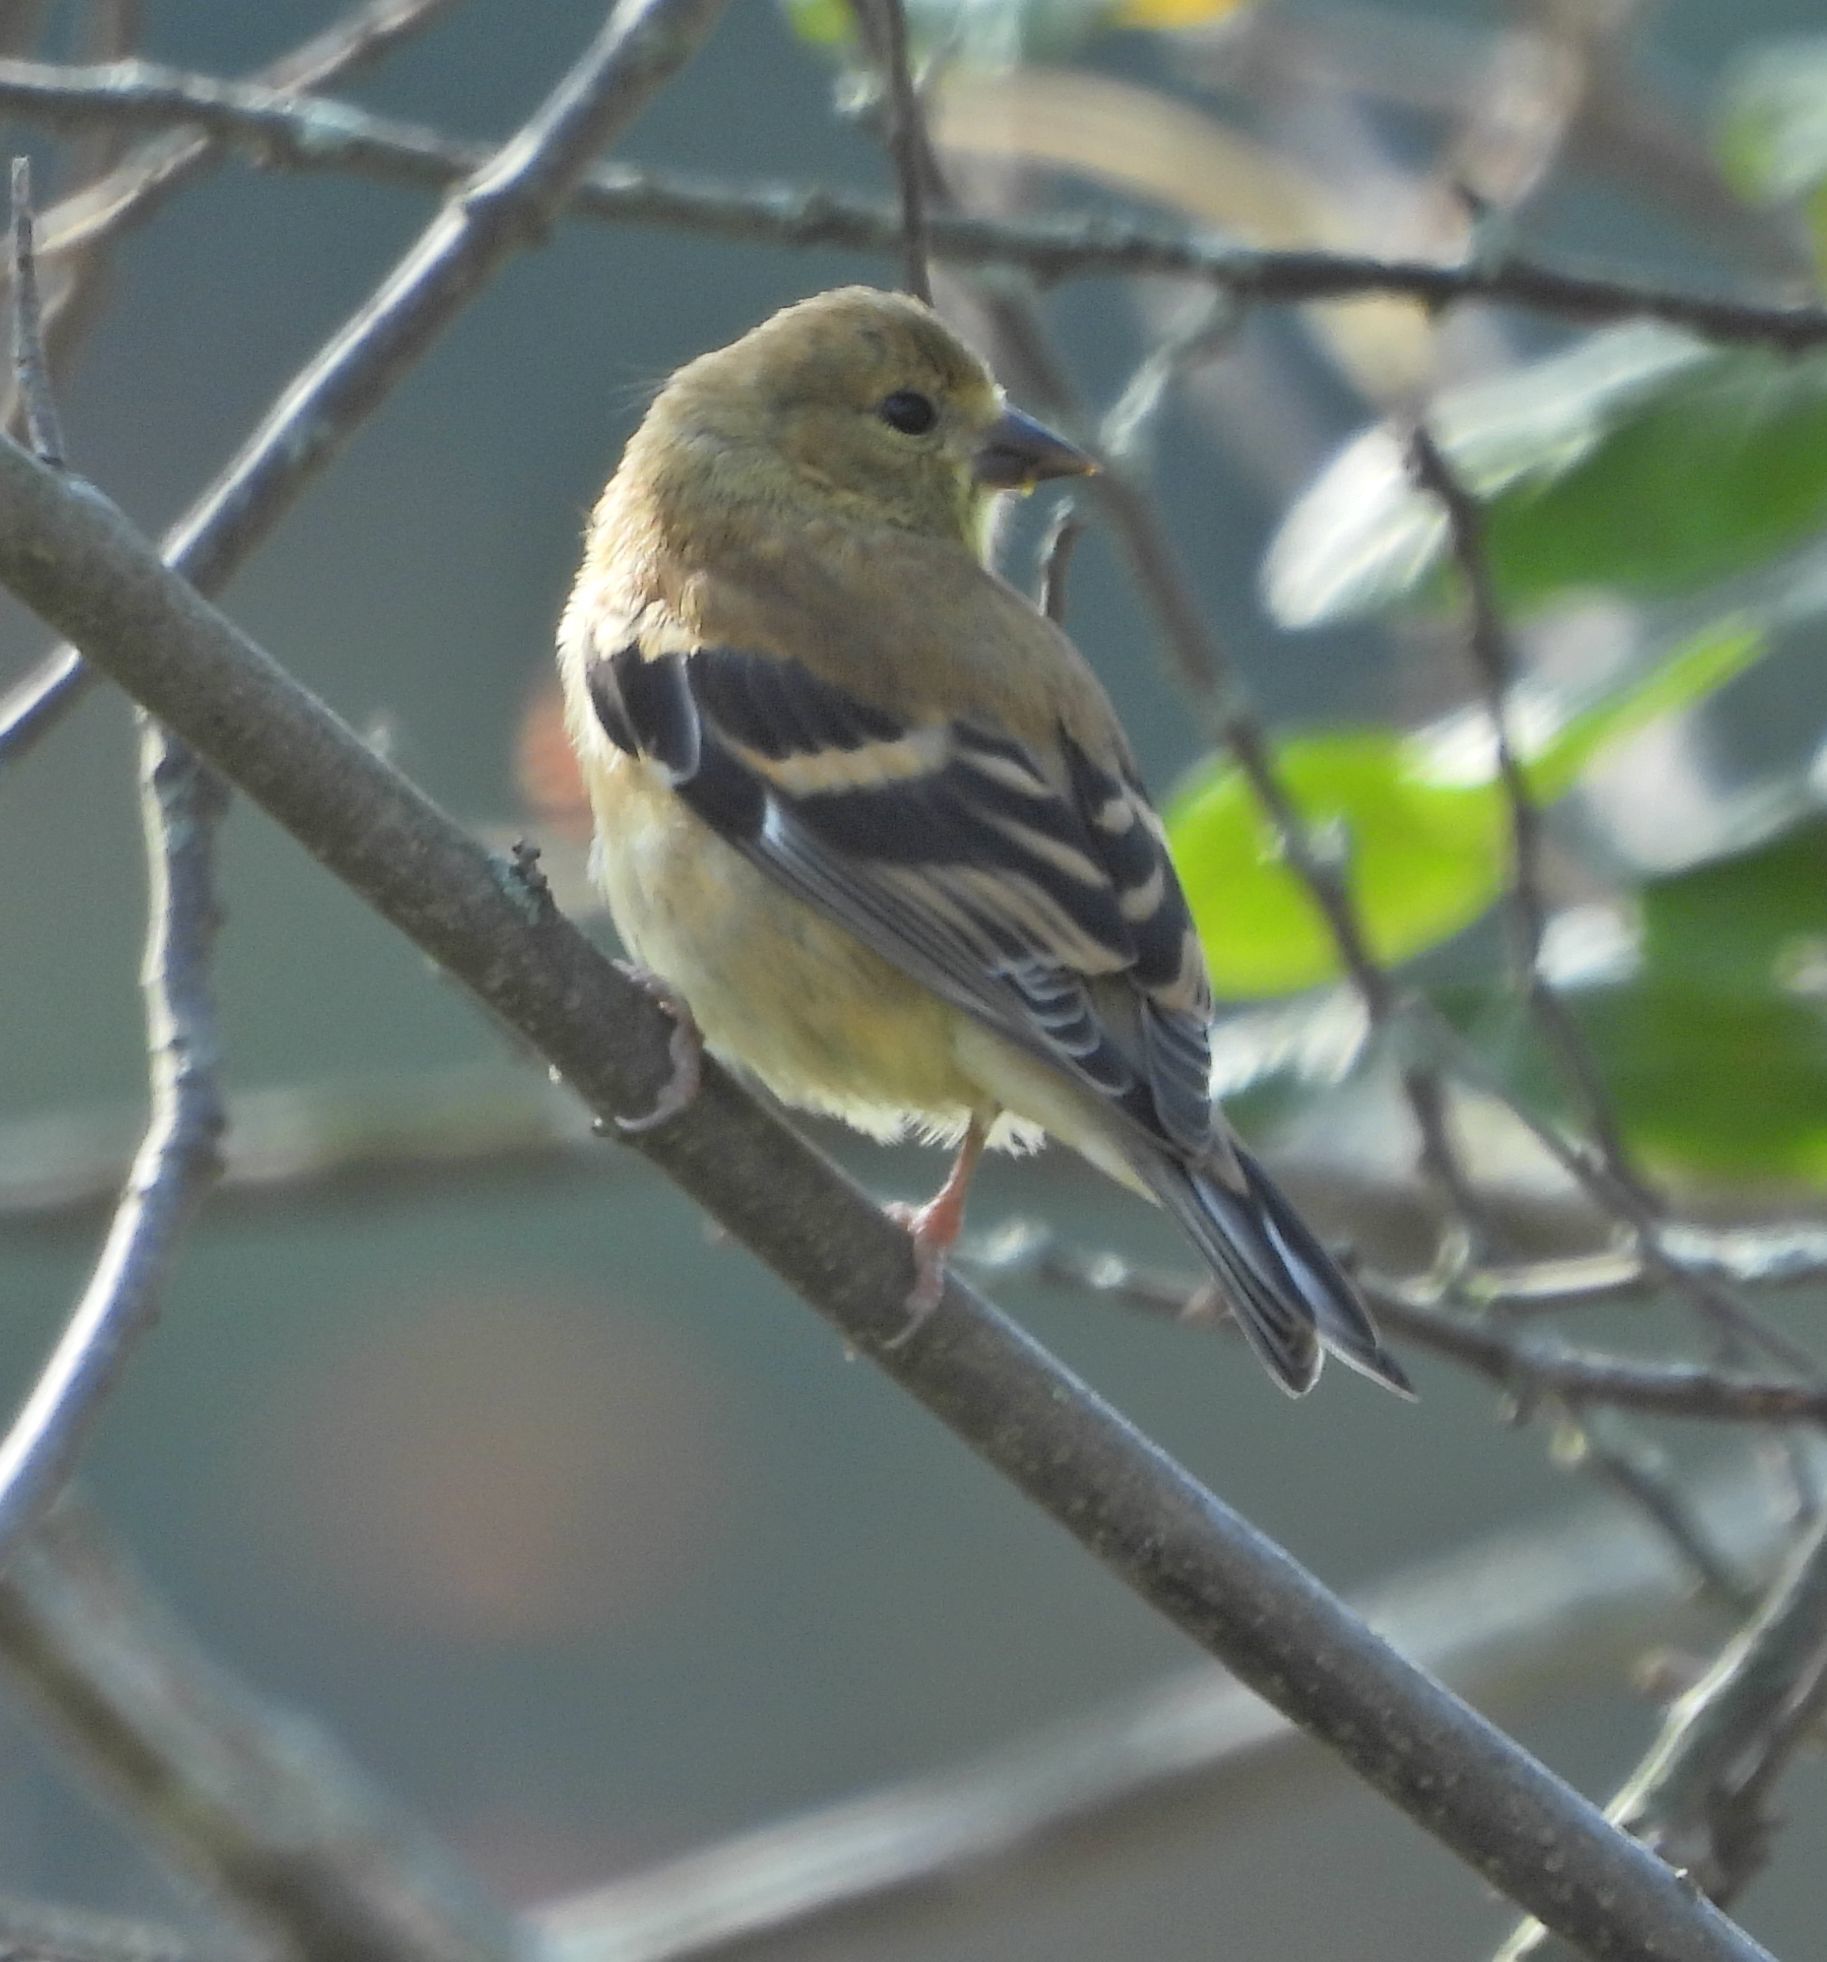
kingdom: Animalia
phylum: Chordata
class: Aves
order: Passeriformes
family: Fringillidae
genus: Spinus
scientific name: Spinus tristis
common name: American goldfinch
